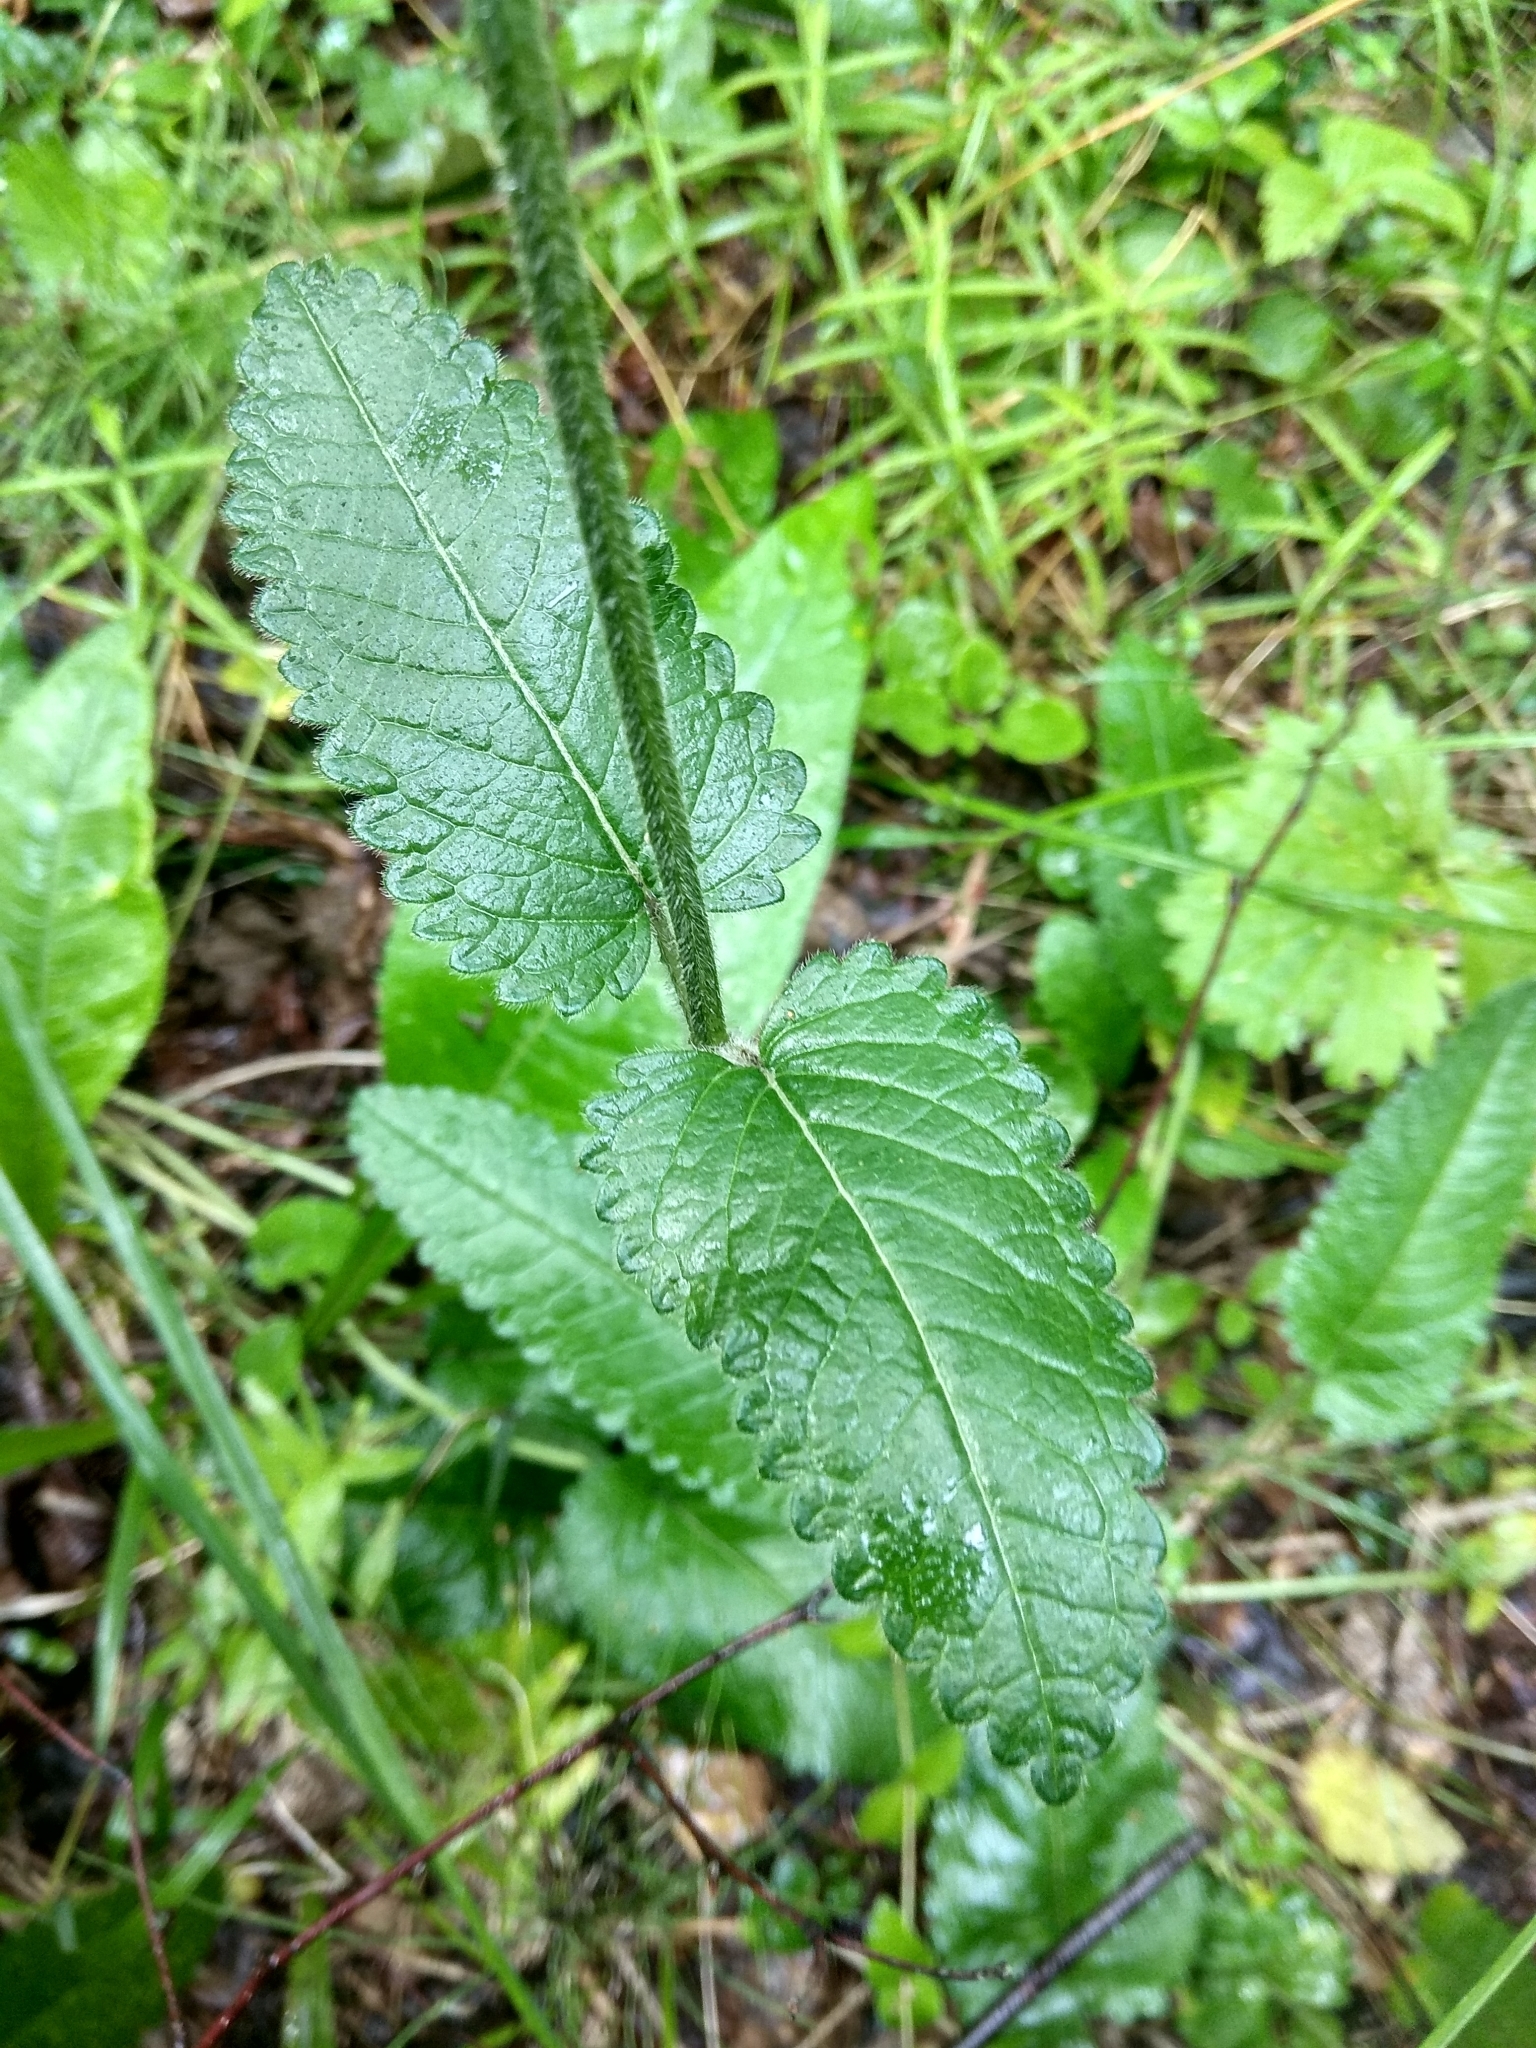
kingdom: Plantae
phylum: Tracheophyta
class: Magnoliopsida
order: Lamiales
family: Lamiaceae
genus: Betonica
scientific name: Betonica officinalis
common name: Bishop's-wort
